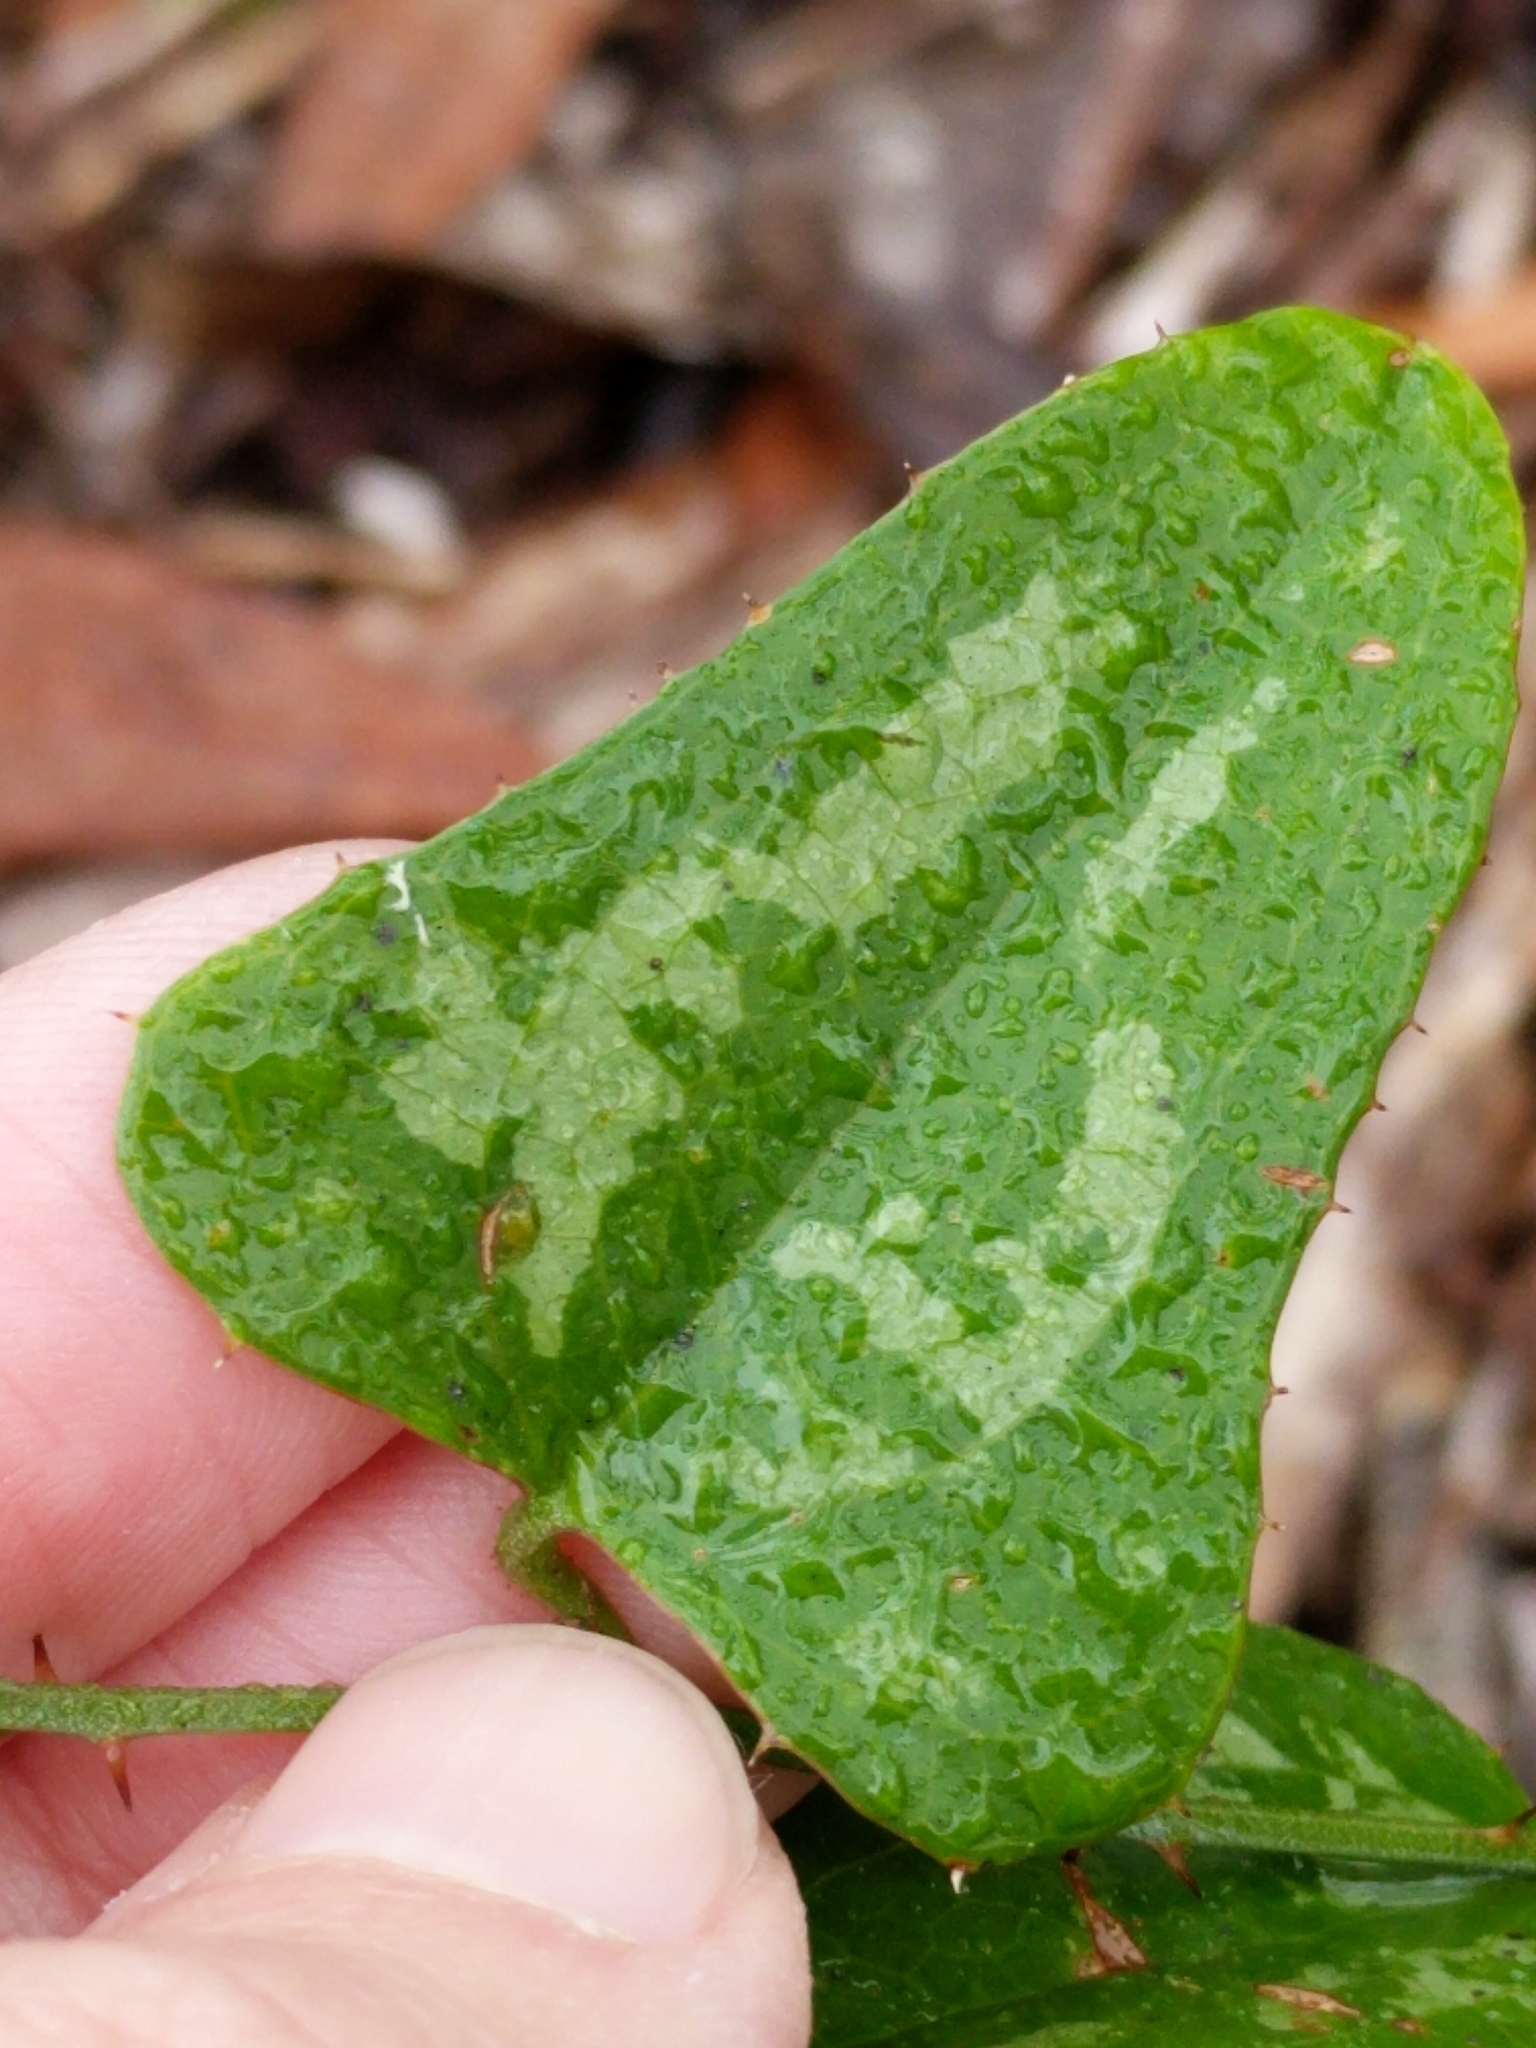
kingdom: Plantae
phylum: Tracheophyta
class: Liliopsida
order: Liliales
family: Smilacaceae
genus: Smilax
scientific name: Smilax bona-nox
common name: Catbrier
